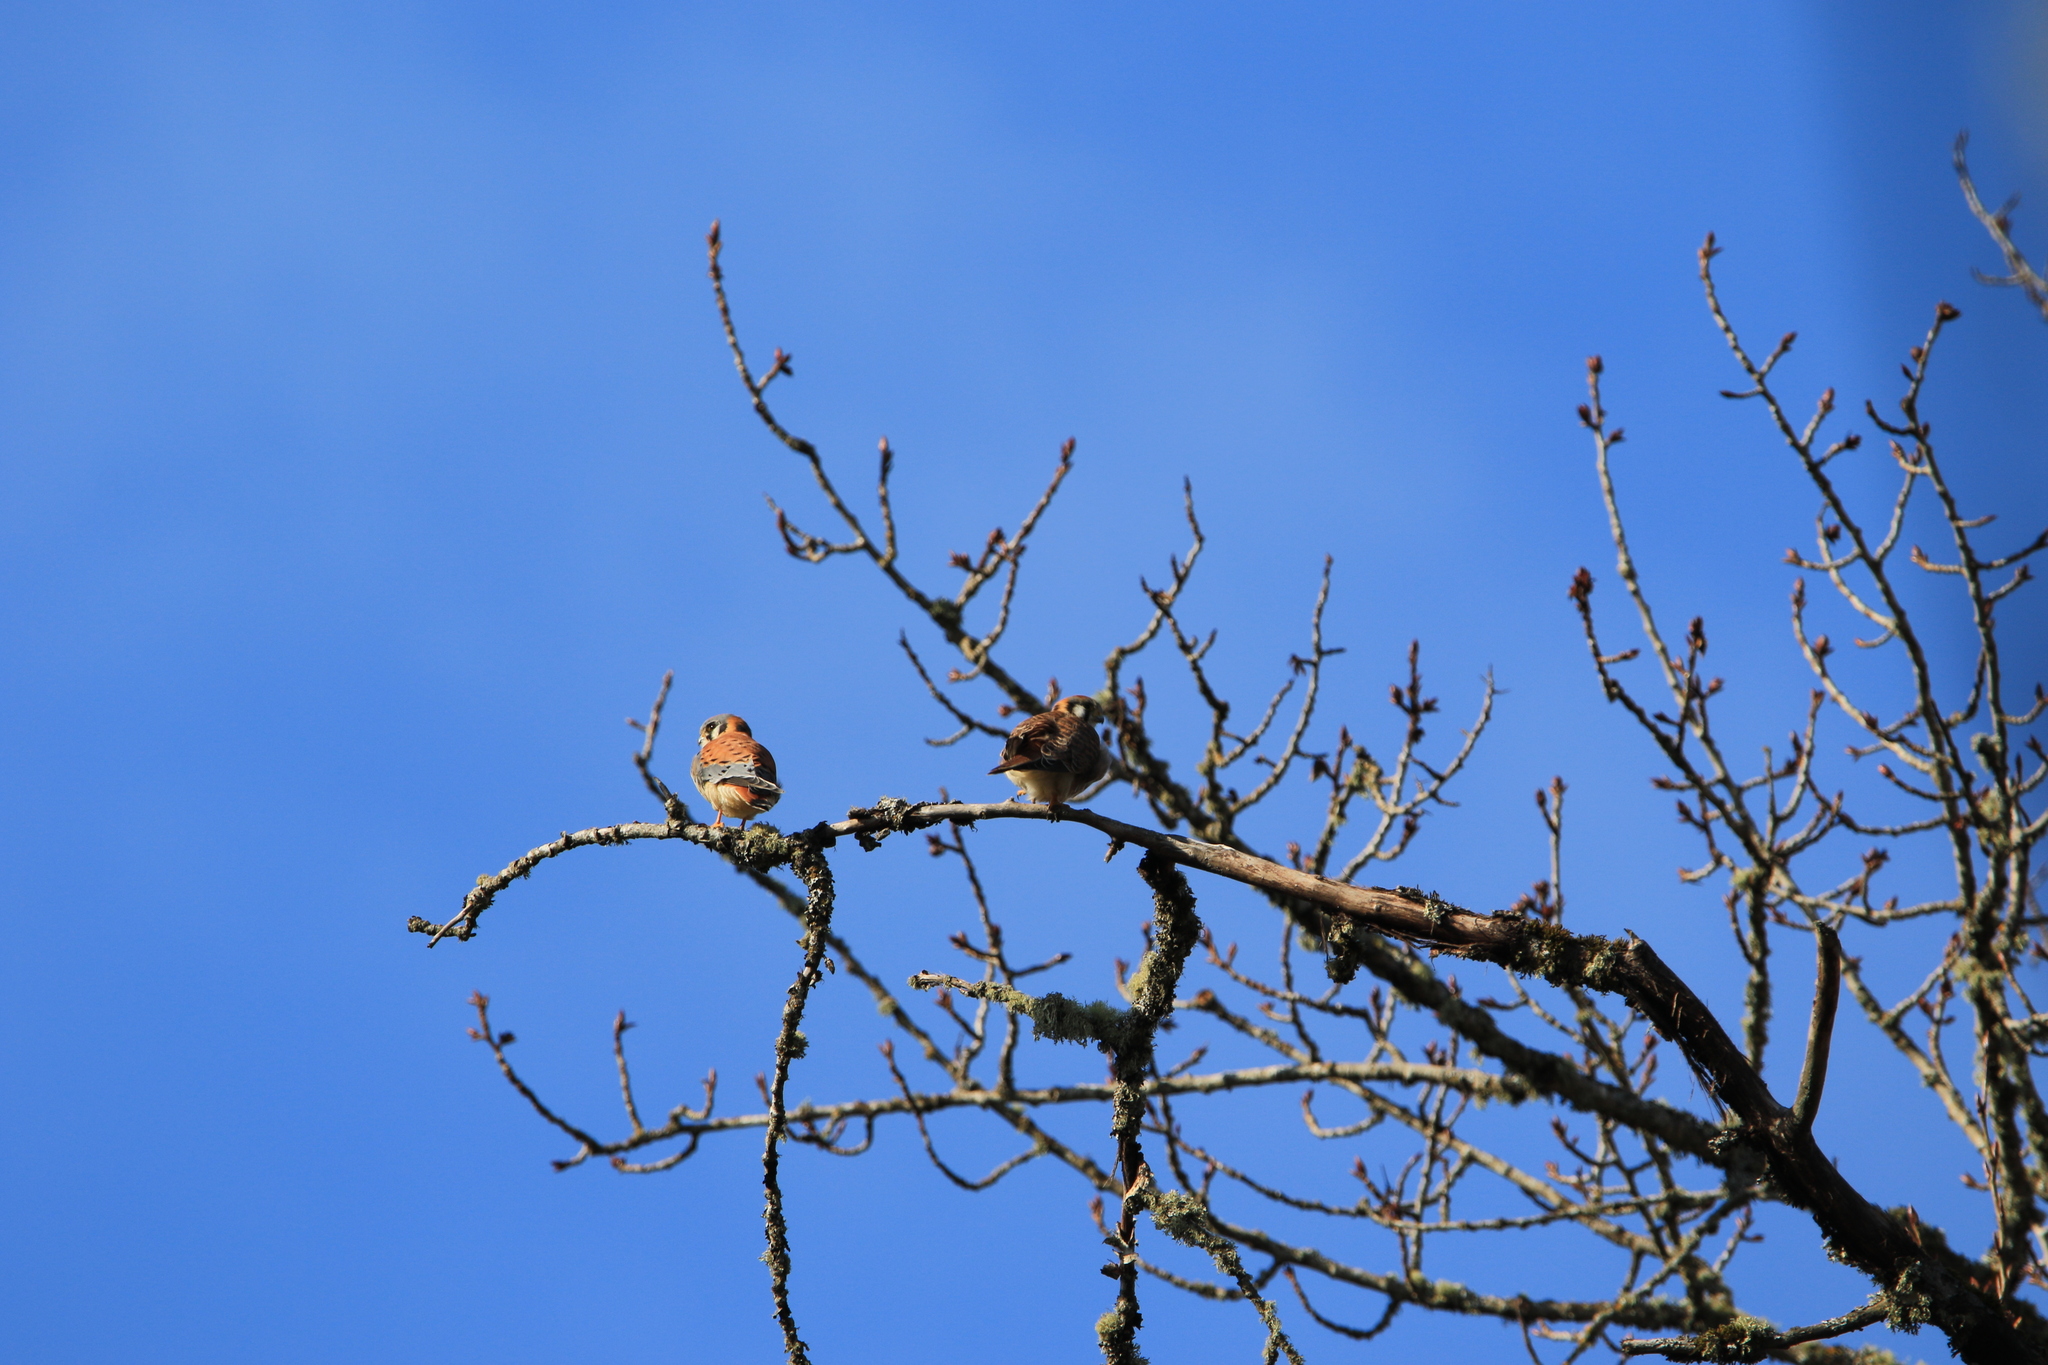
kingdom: Animalia
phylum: Chordata
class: Aves
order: Falconiformes
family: Falconidae
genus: Falco
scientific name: Falco sparverius
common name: American kestrel
